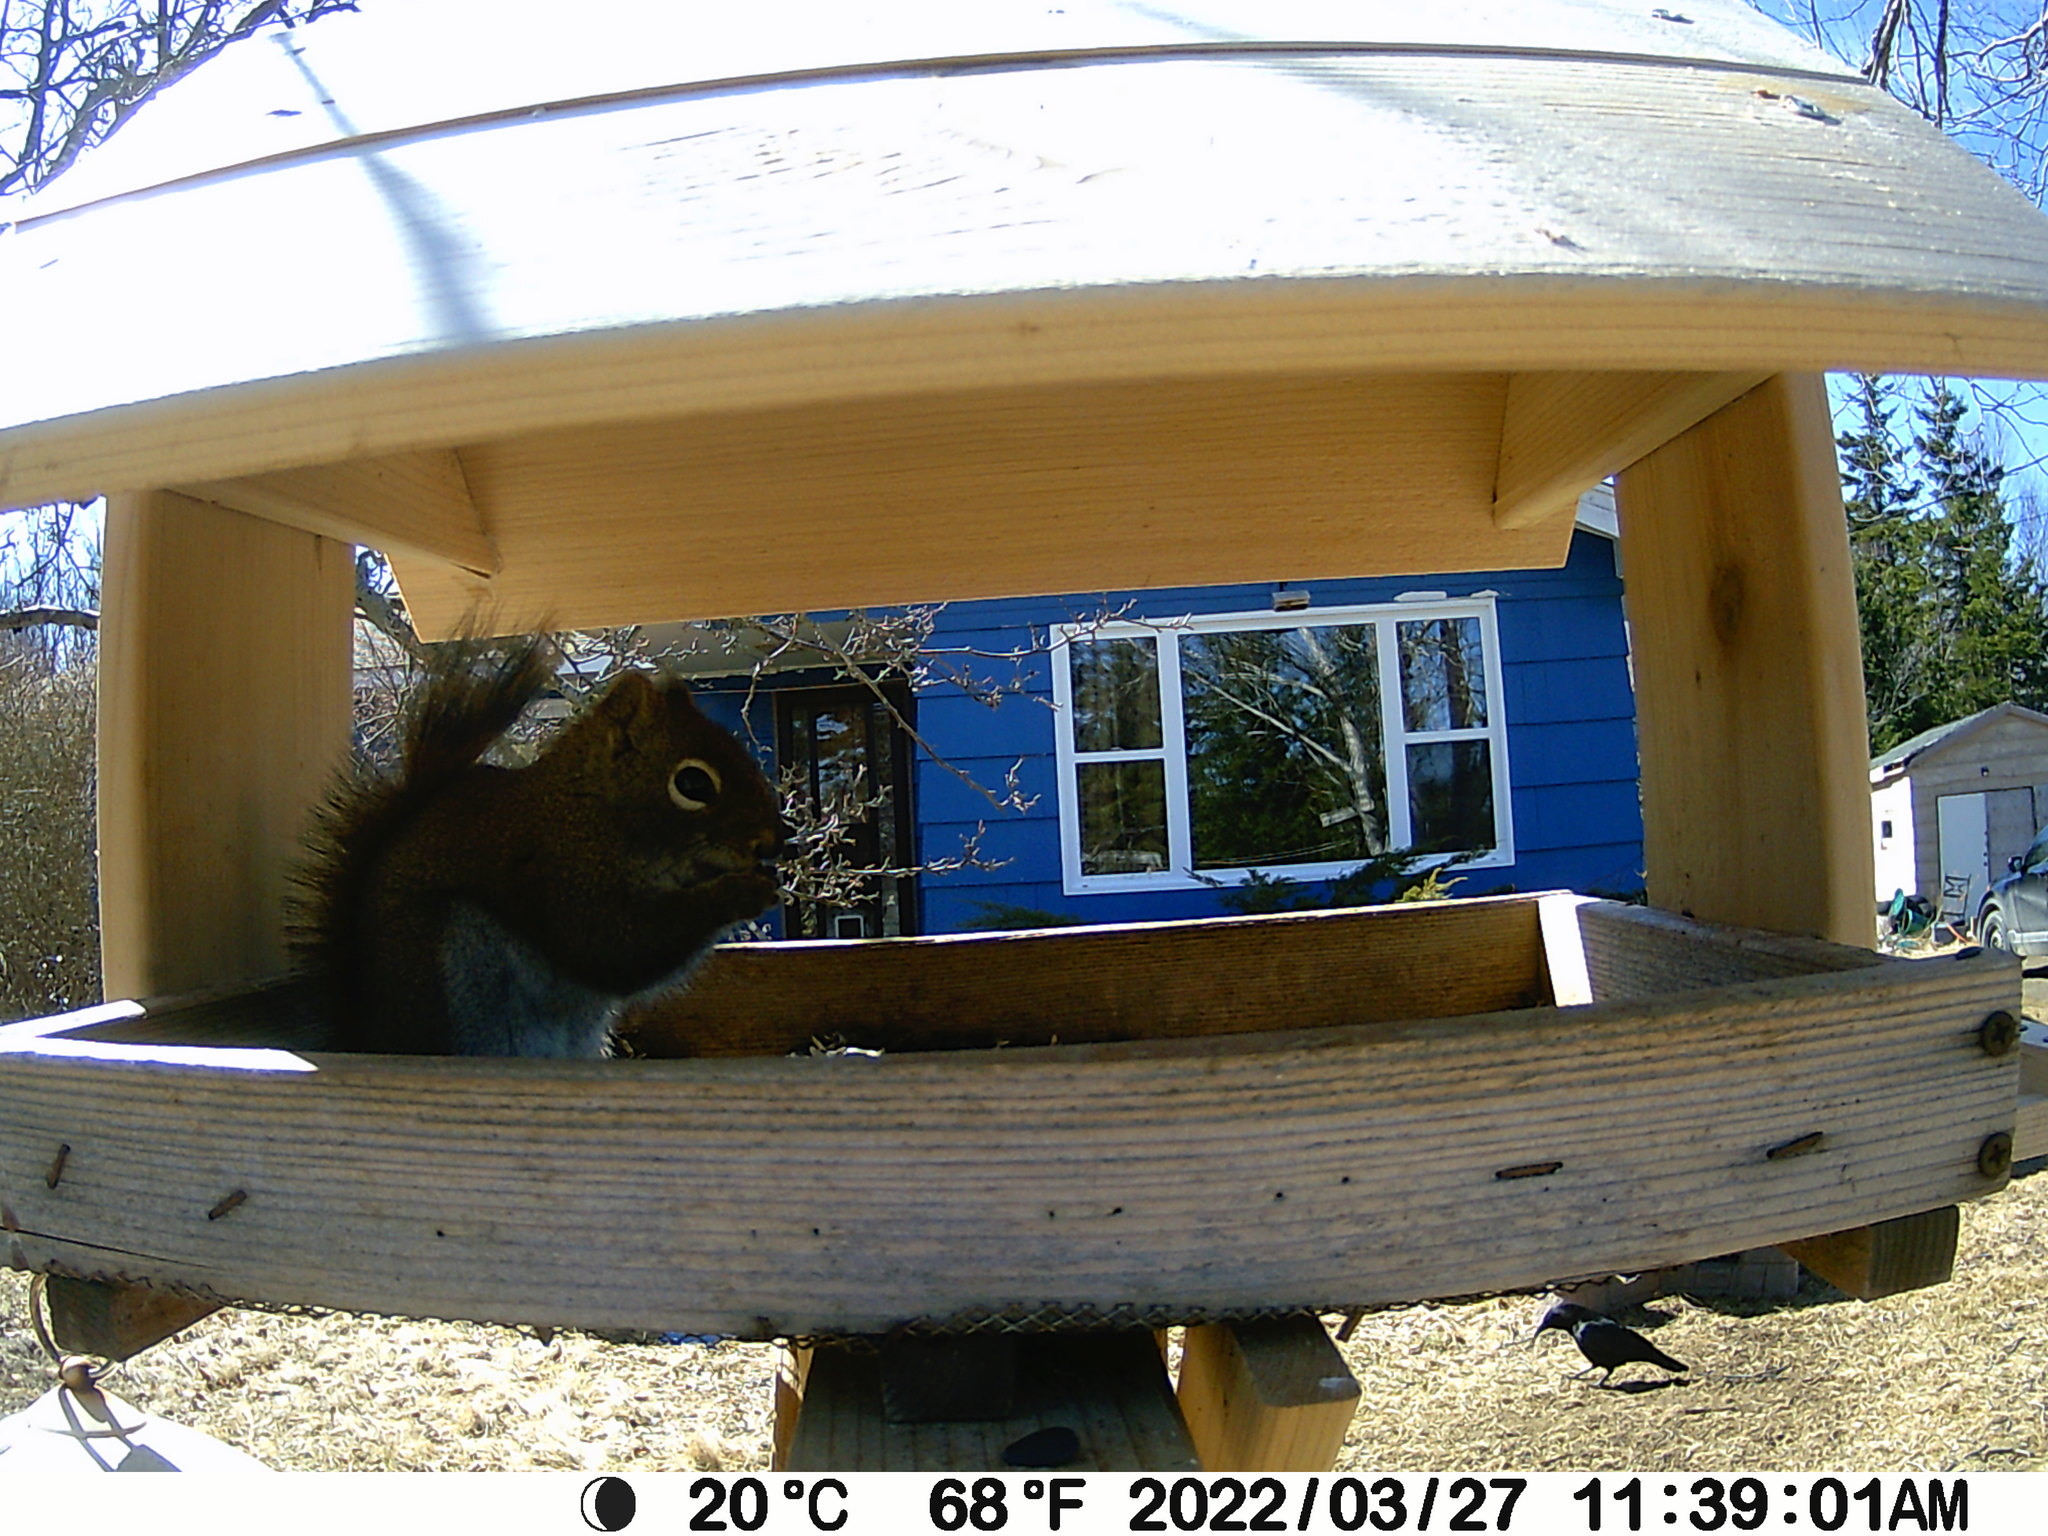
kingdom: Animalia
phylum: Chordata
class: Aves
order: Passeriformes
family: Corvidae
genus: Corvus
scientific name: Corvus brachyrhynchos
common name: American crow
